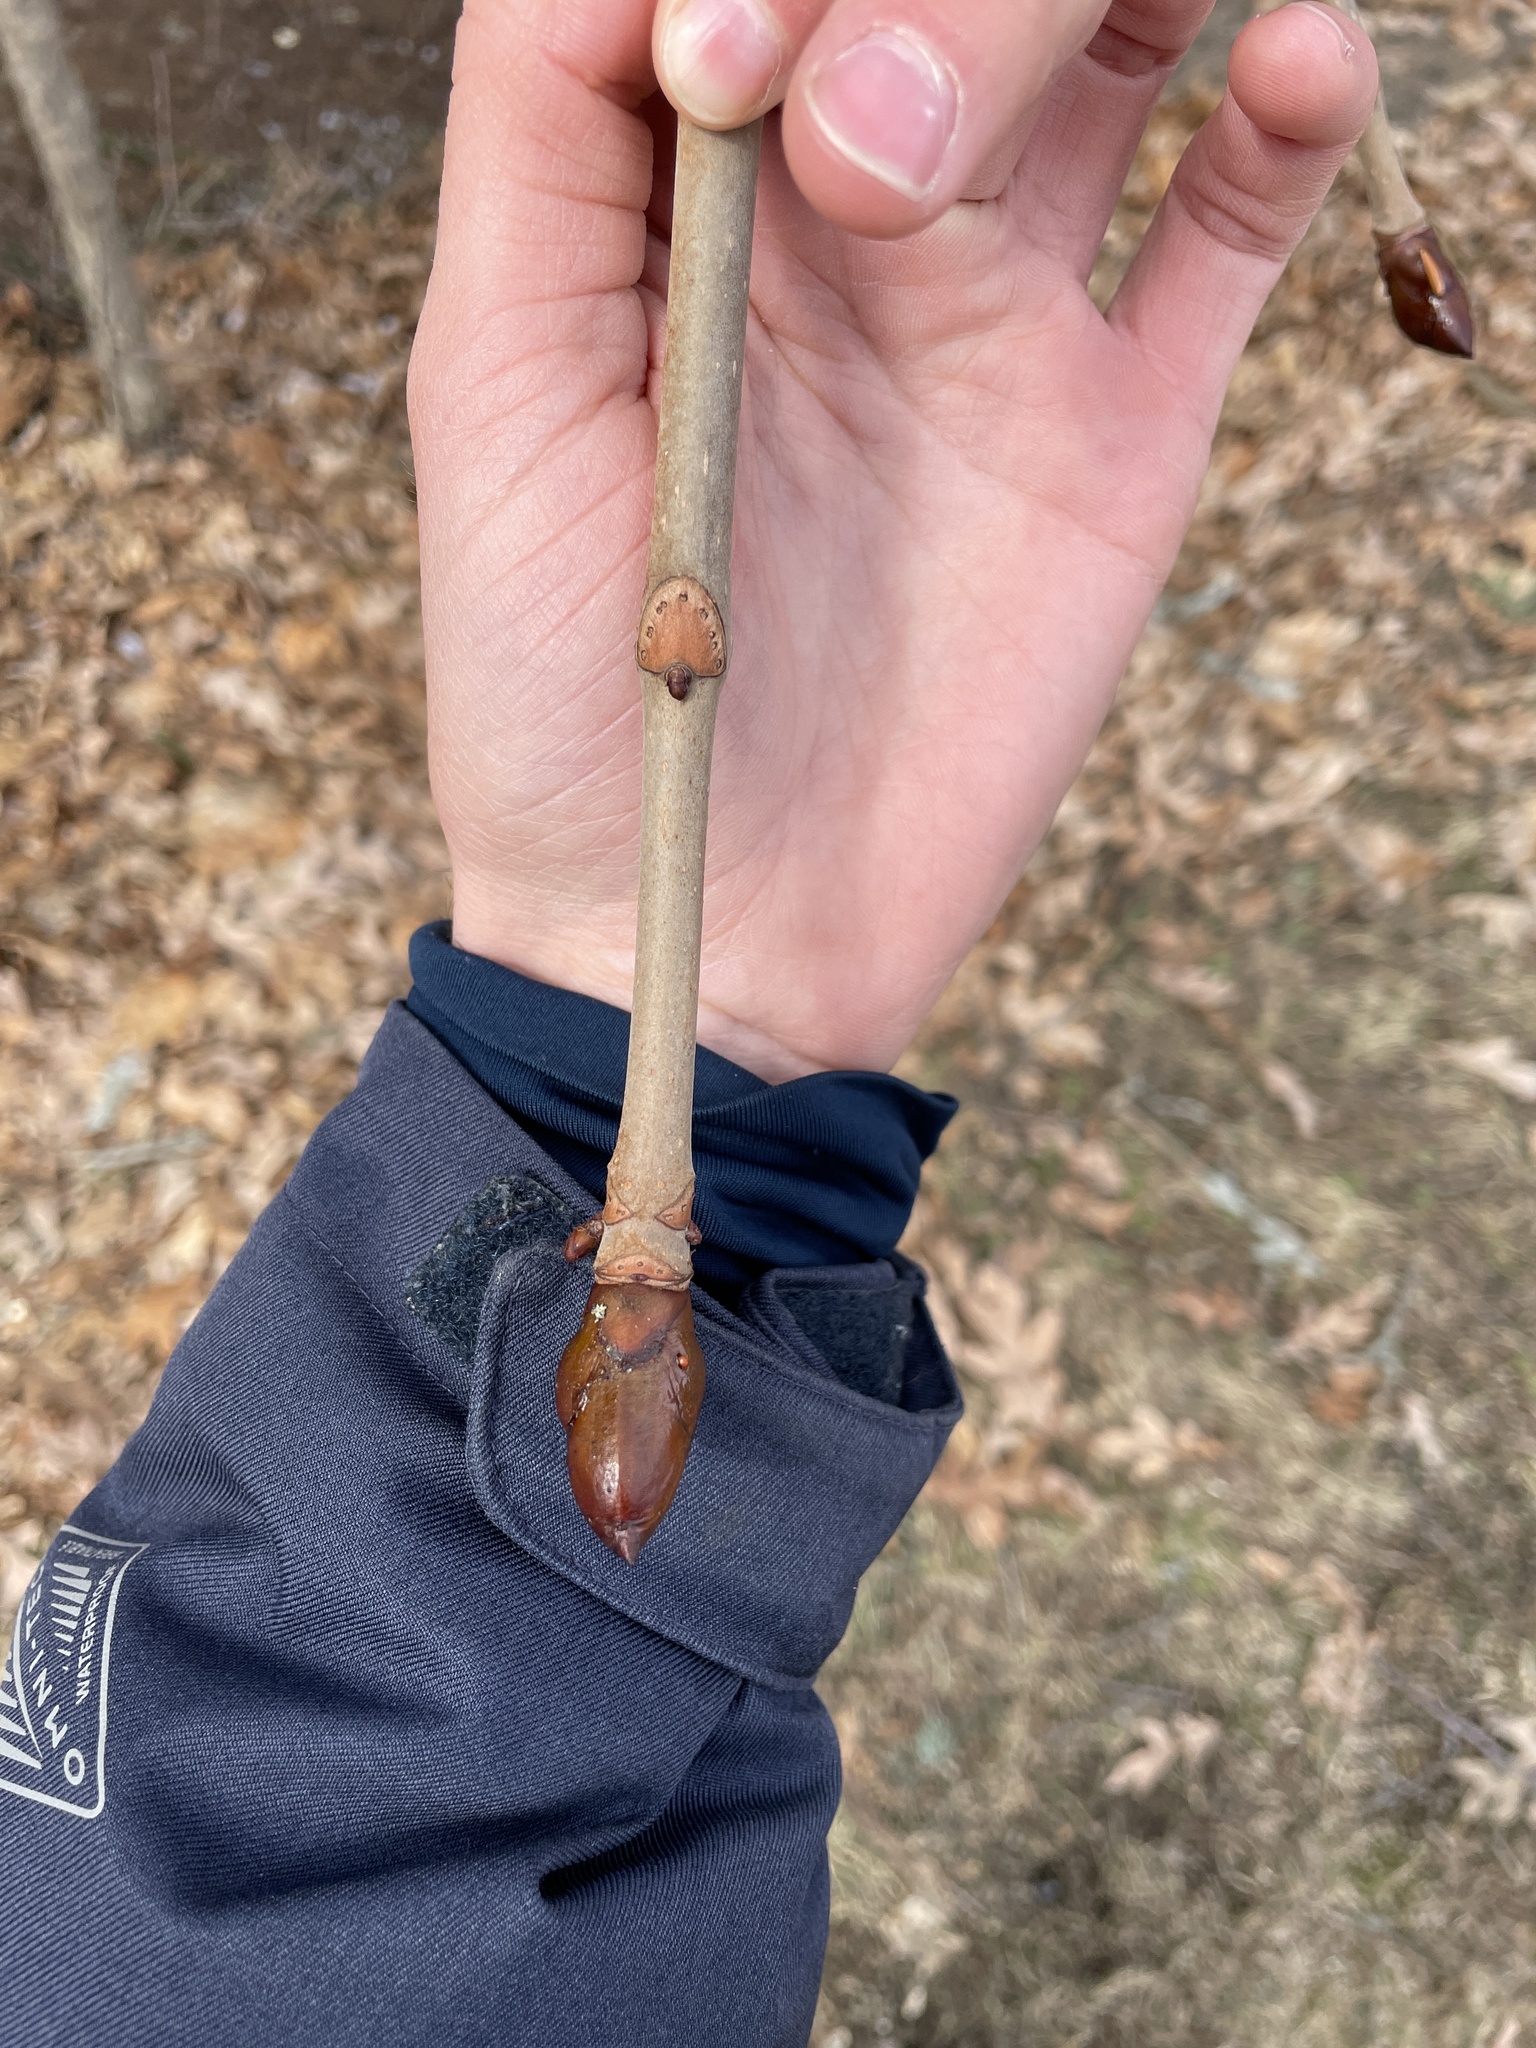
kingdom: Plantae
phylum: Tracheophyta
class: Magnoliopsida
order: Sapindales
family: Sapindaceae
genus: Aesculus
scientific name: Aesculus hippocastanum
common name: Horse-chestnut
